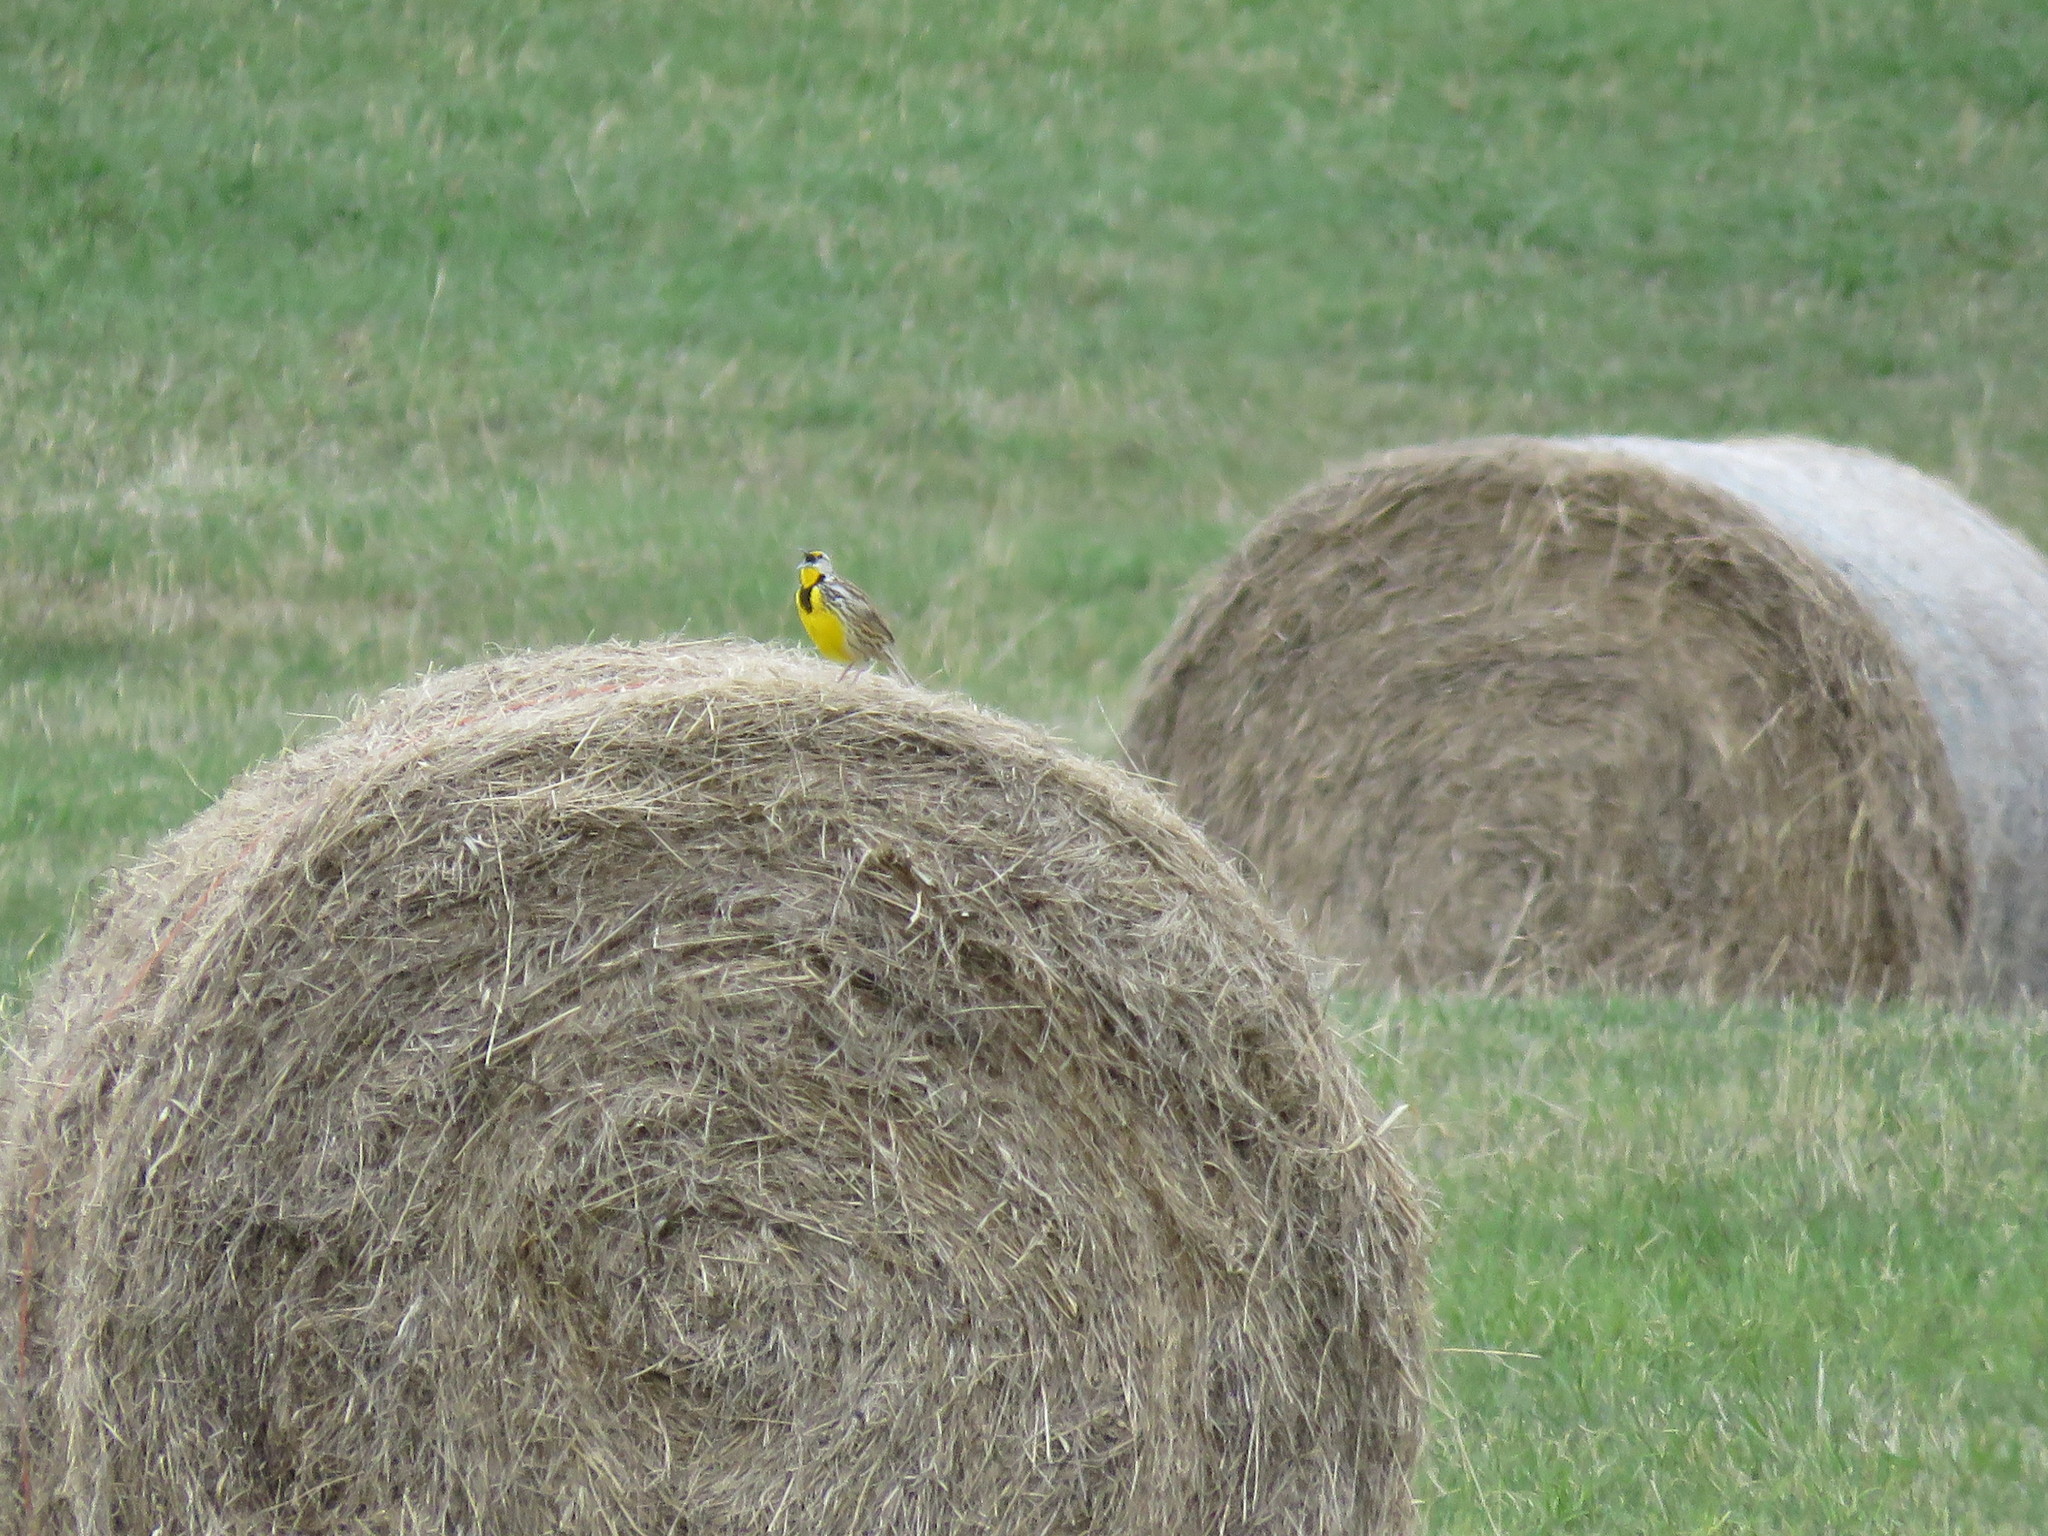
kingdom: Animalia
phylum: Chordata
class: Aves
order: Passeriformes
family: Icteridae
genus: Sturnella
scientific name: Sturnella magna
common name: Eastern meadowlark
